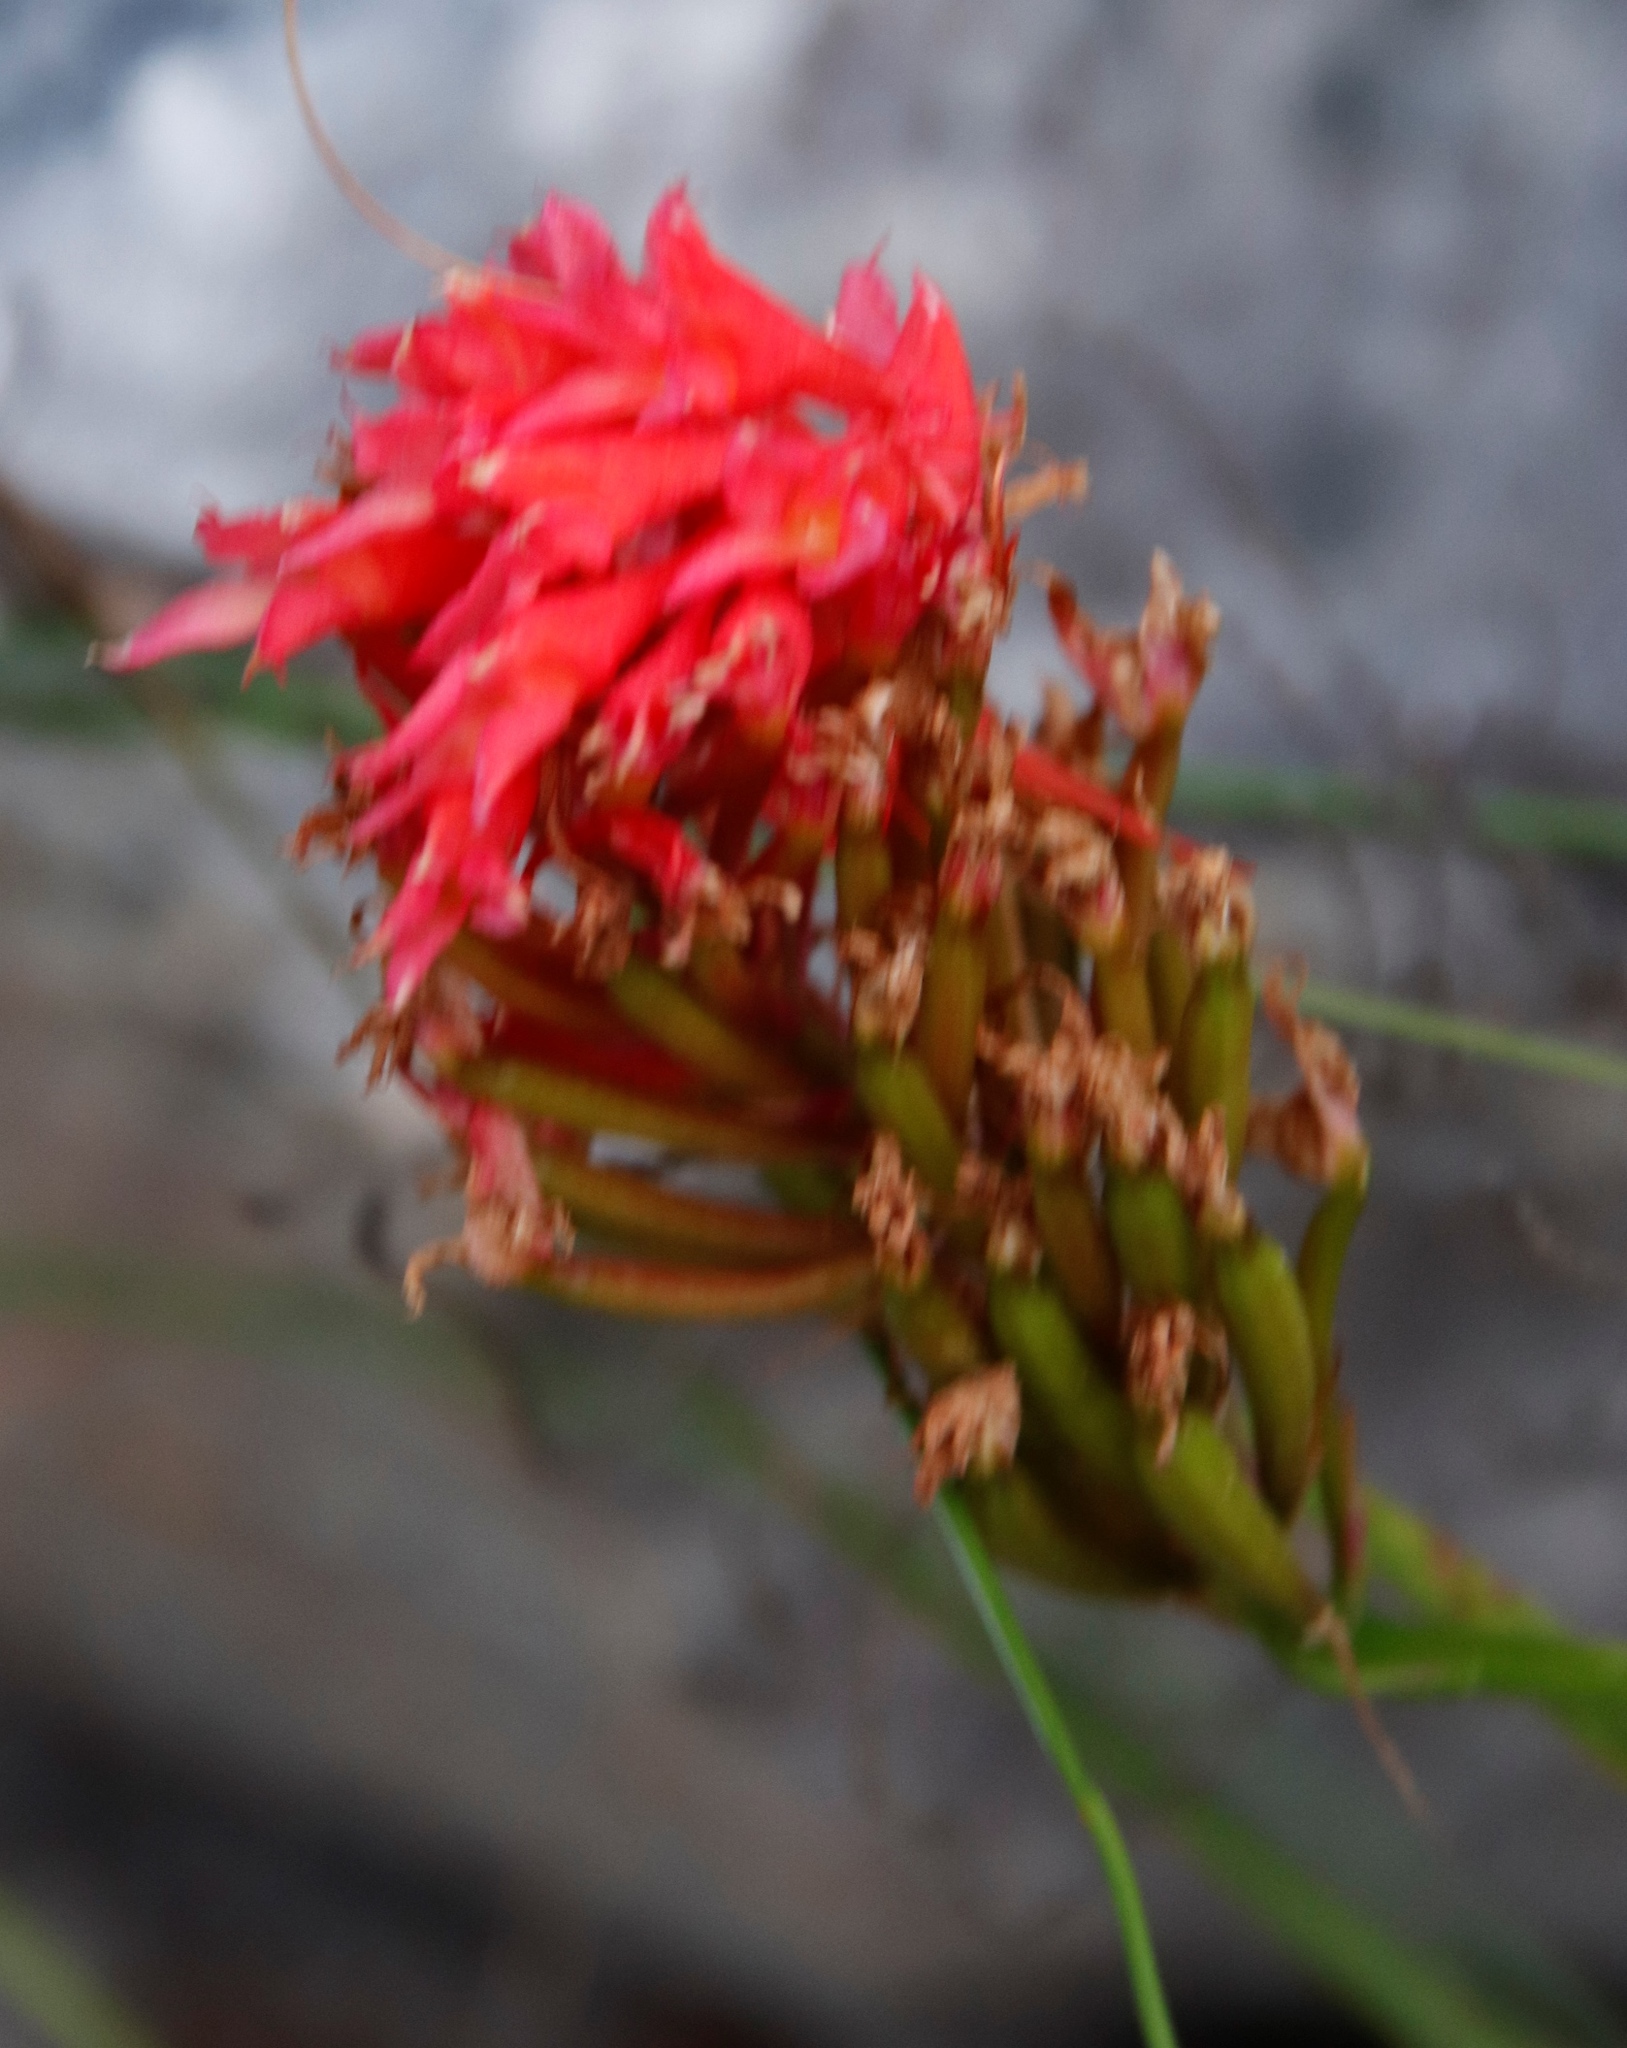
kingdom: Plantae
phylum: Tracheophyta
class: Liliopsida
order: Asparagales
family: Orchidaceae
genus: Disa
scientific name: Disa ferruginea
